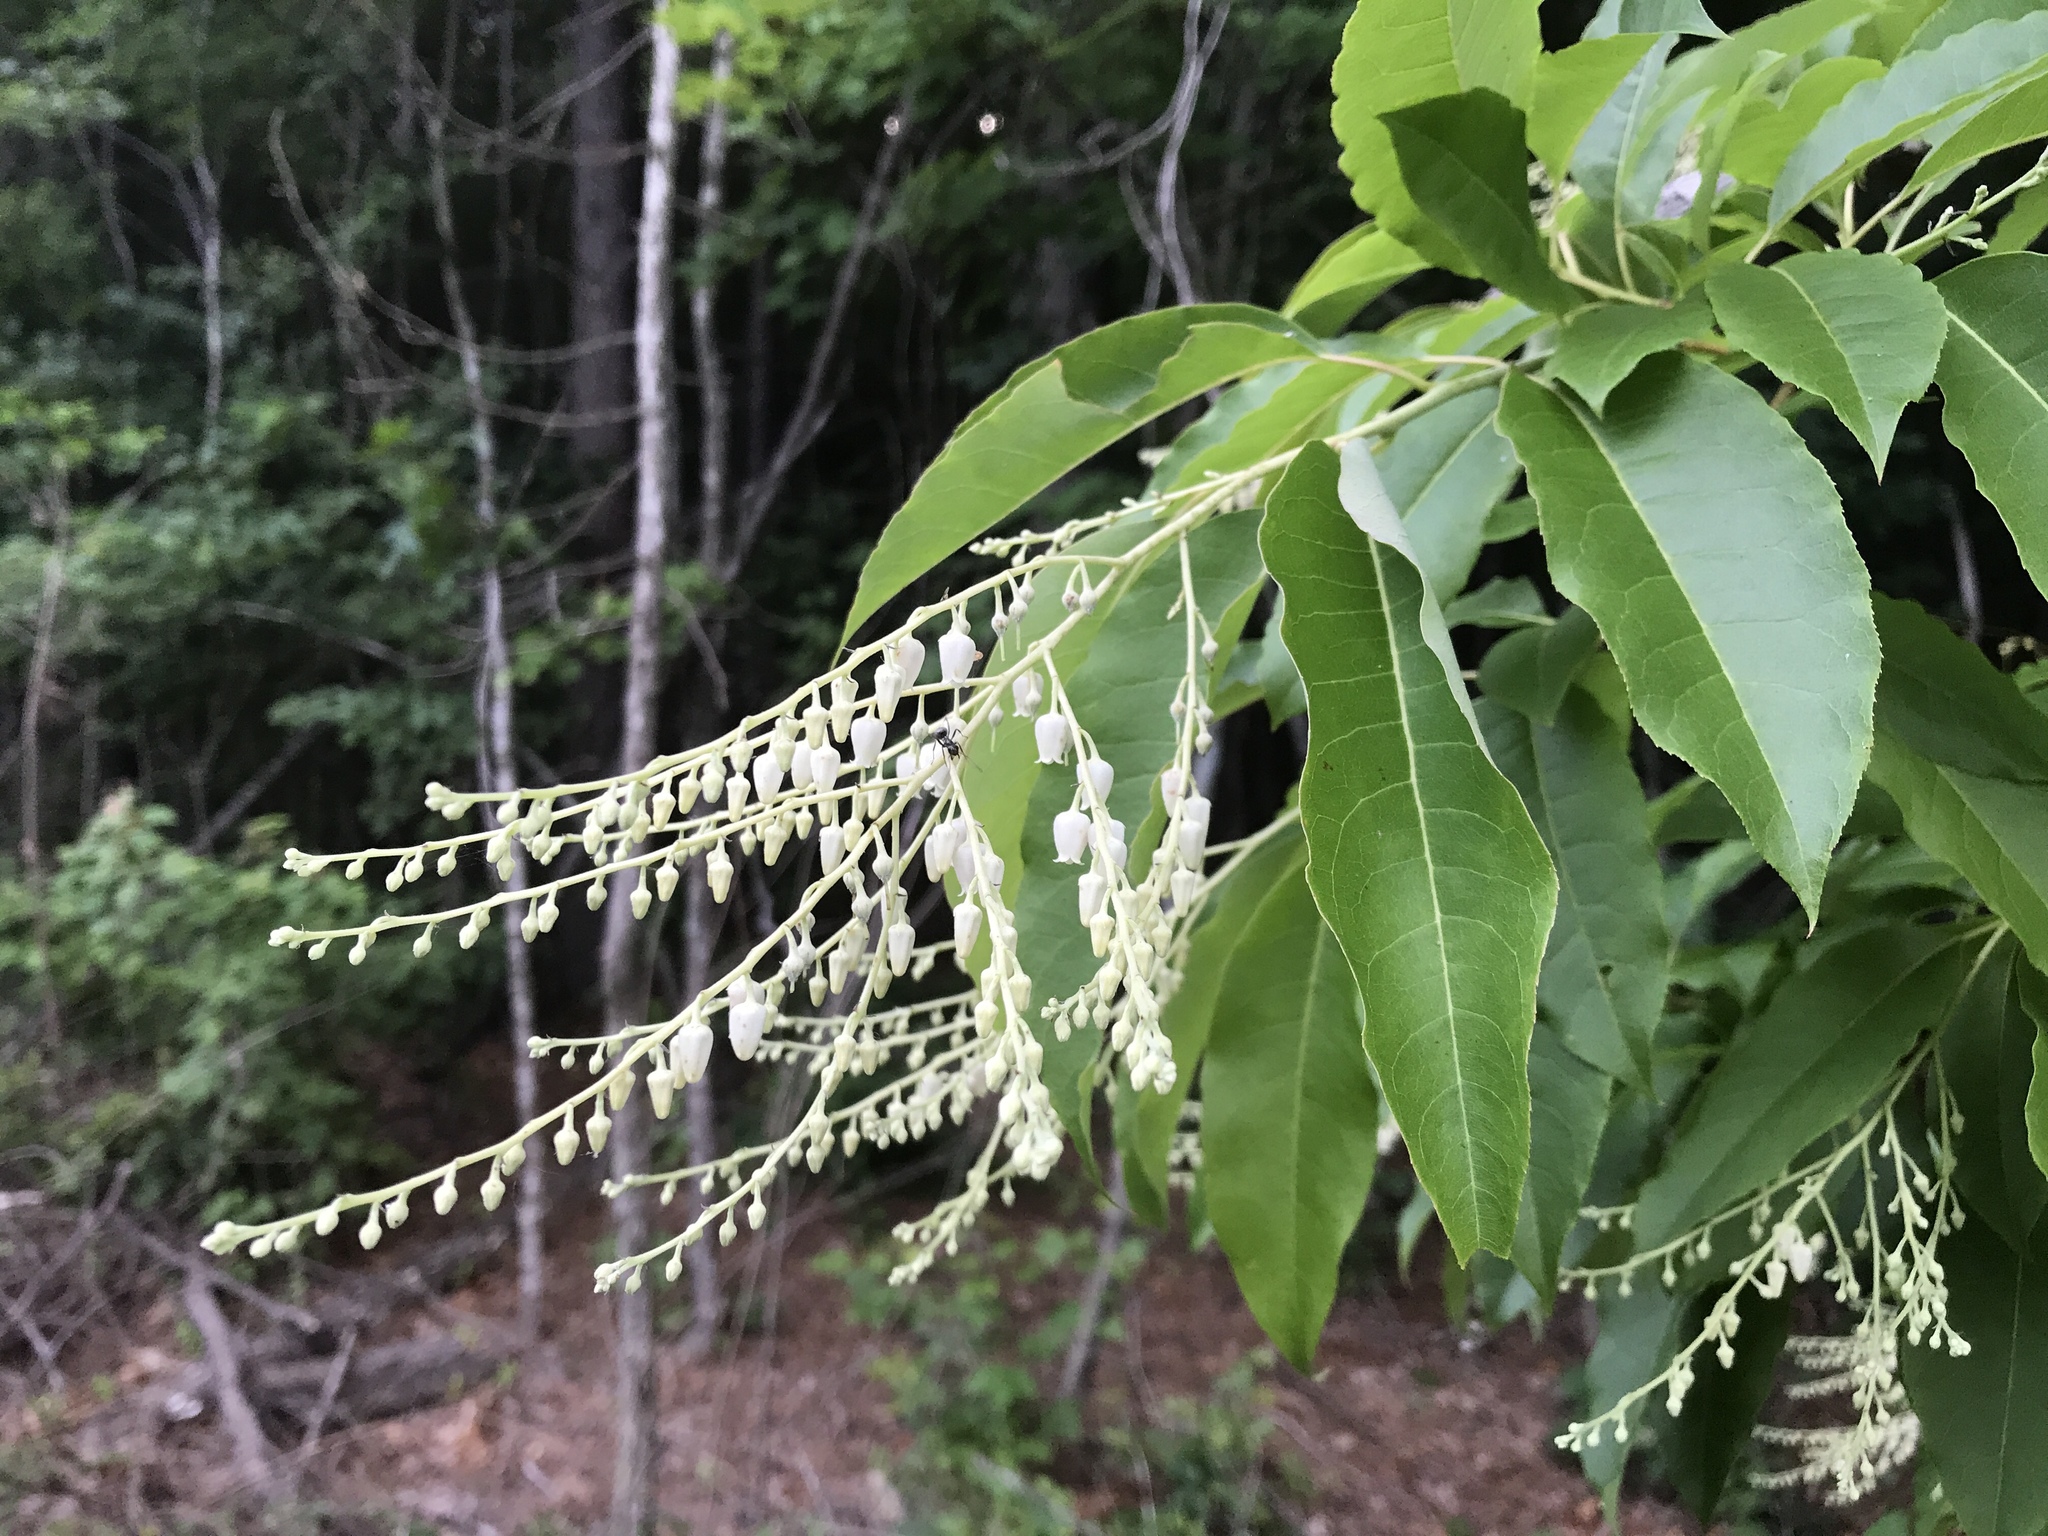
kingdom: Plantae
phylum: Tracheophyta
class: Magnoliopsida
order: Ericales
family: Ericaceae
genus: Oxydendrum
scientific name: Oxydendrum arboreum
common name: Sourwood
